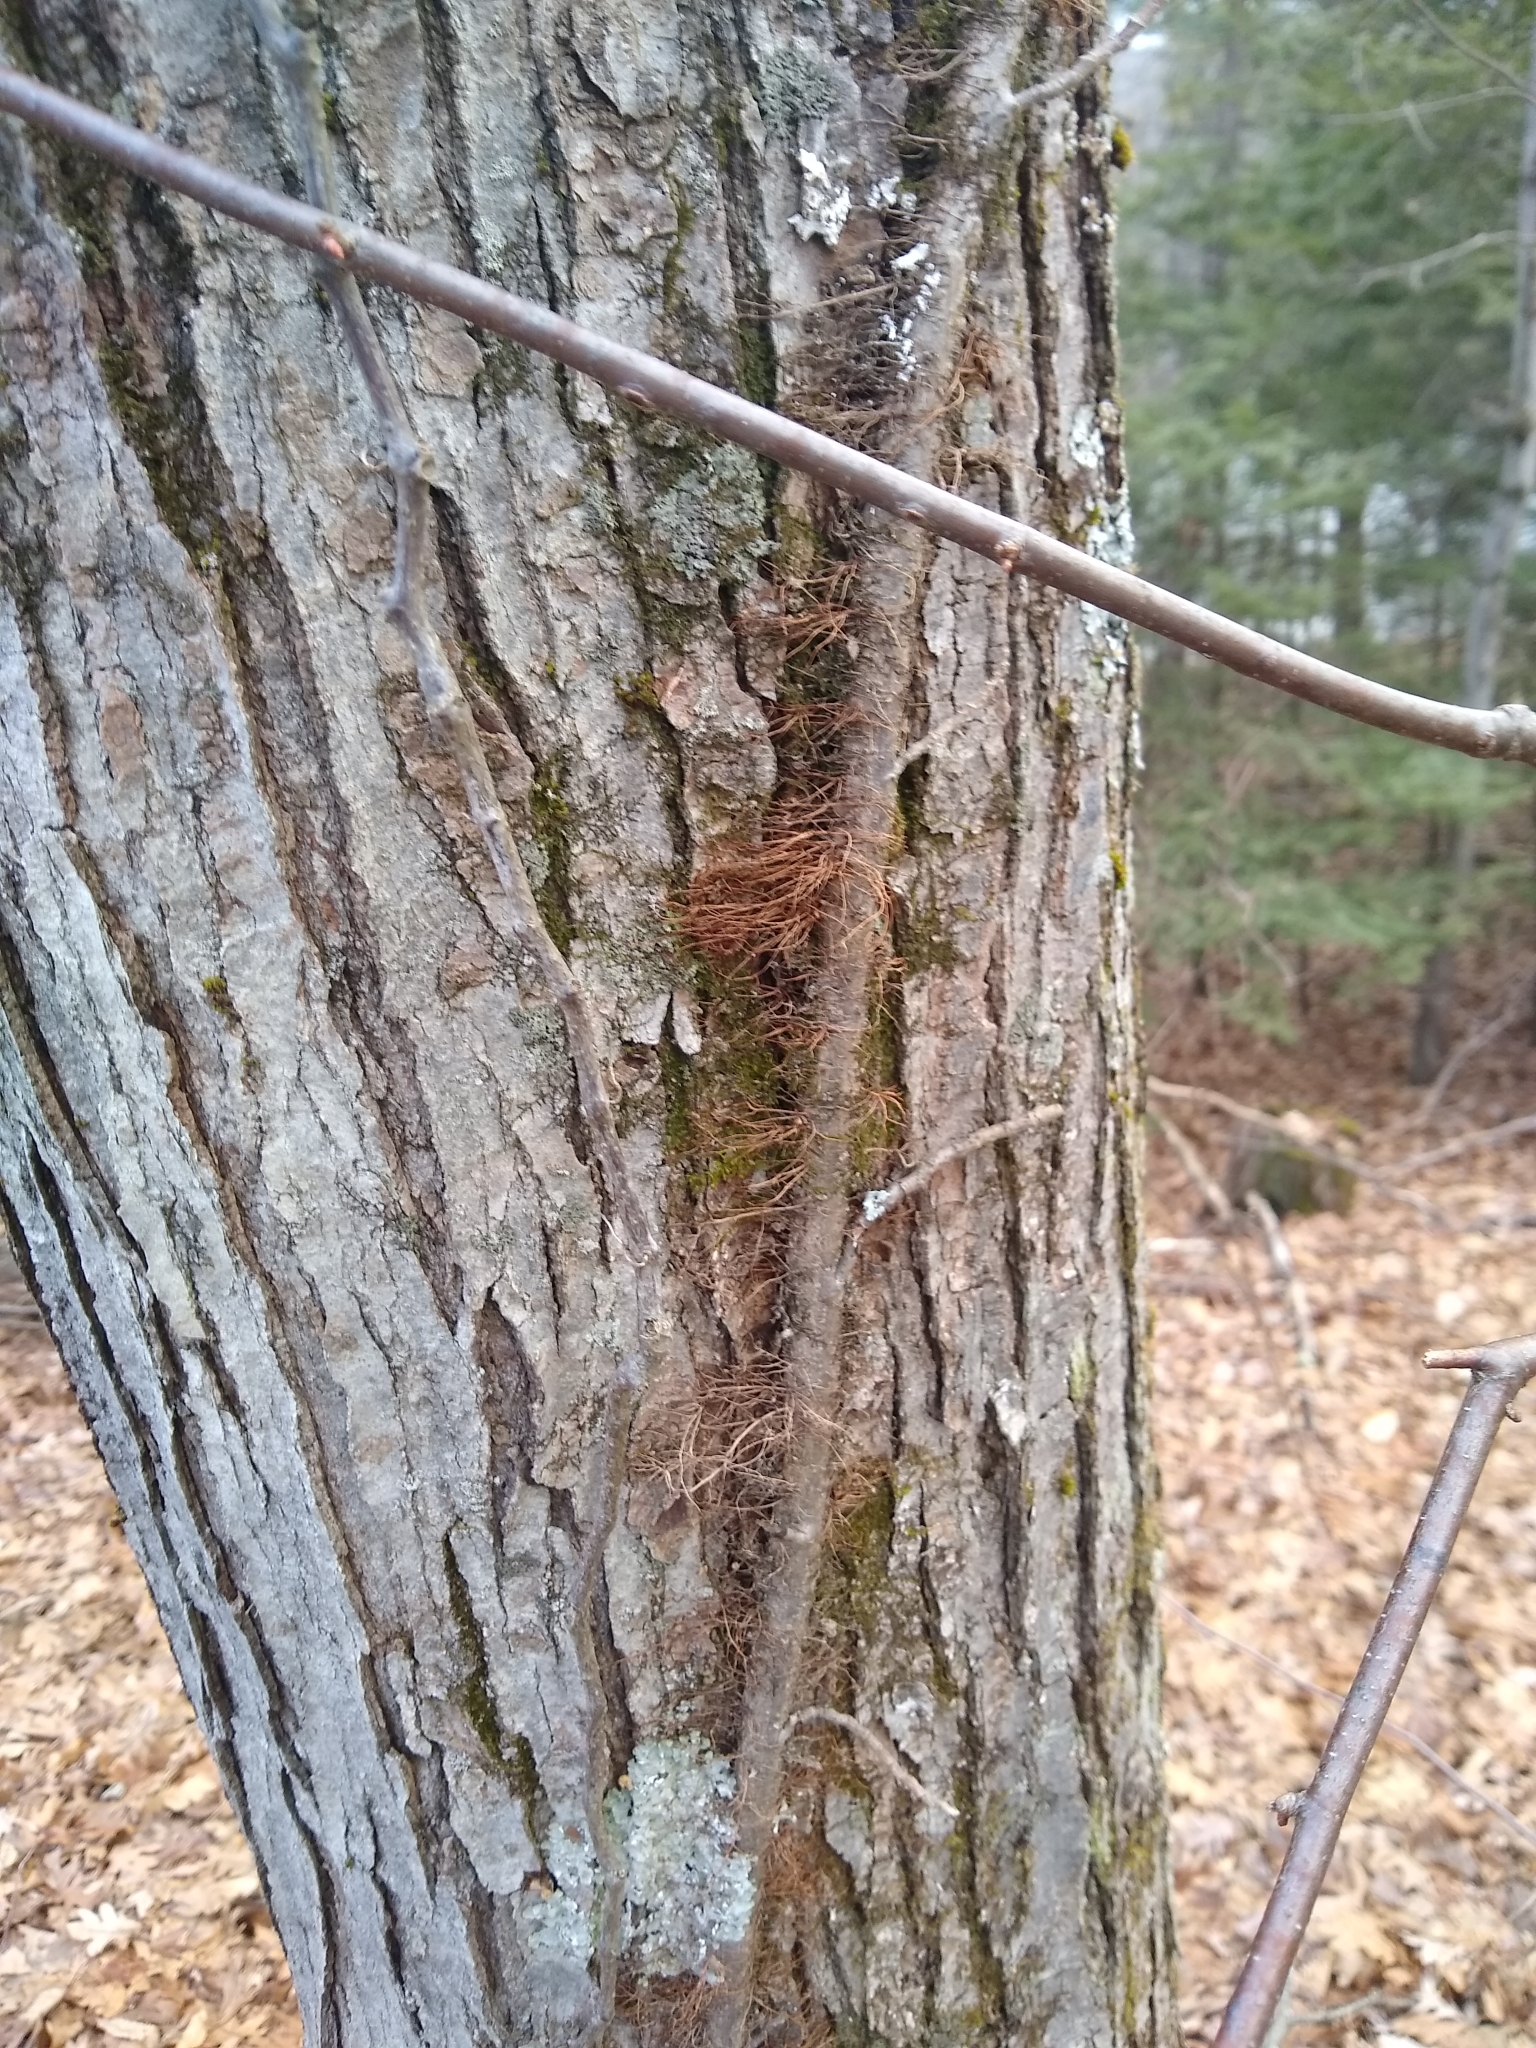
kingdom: Plantae
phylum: Tracheophyta
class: Magnoliopsida
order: Sapindales
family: Anacardiaceae
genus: Toxicodendron
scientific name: Toxicodendron radicans
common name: Poison ivy
